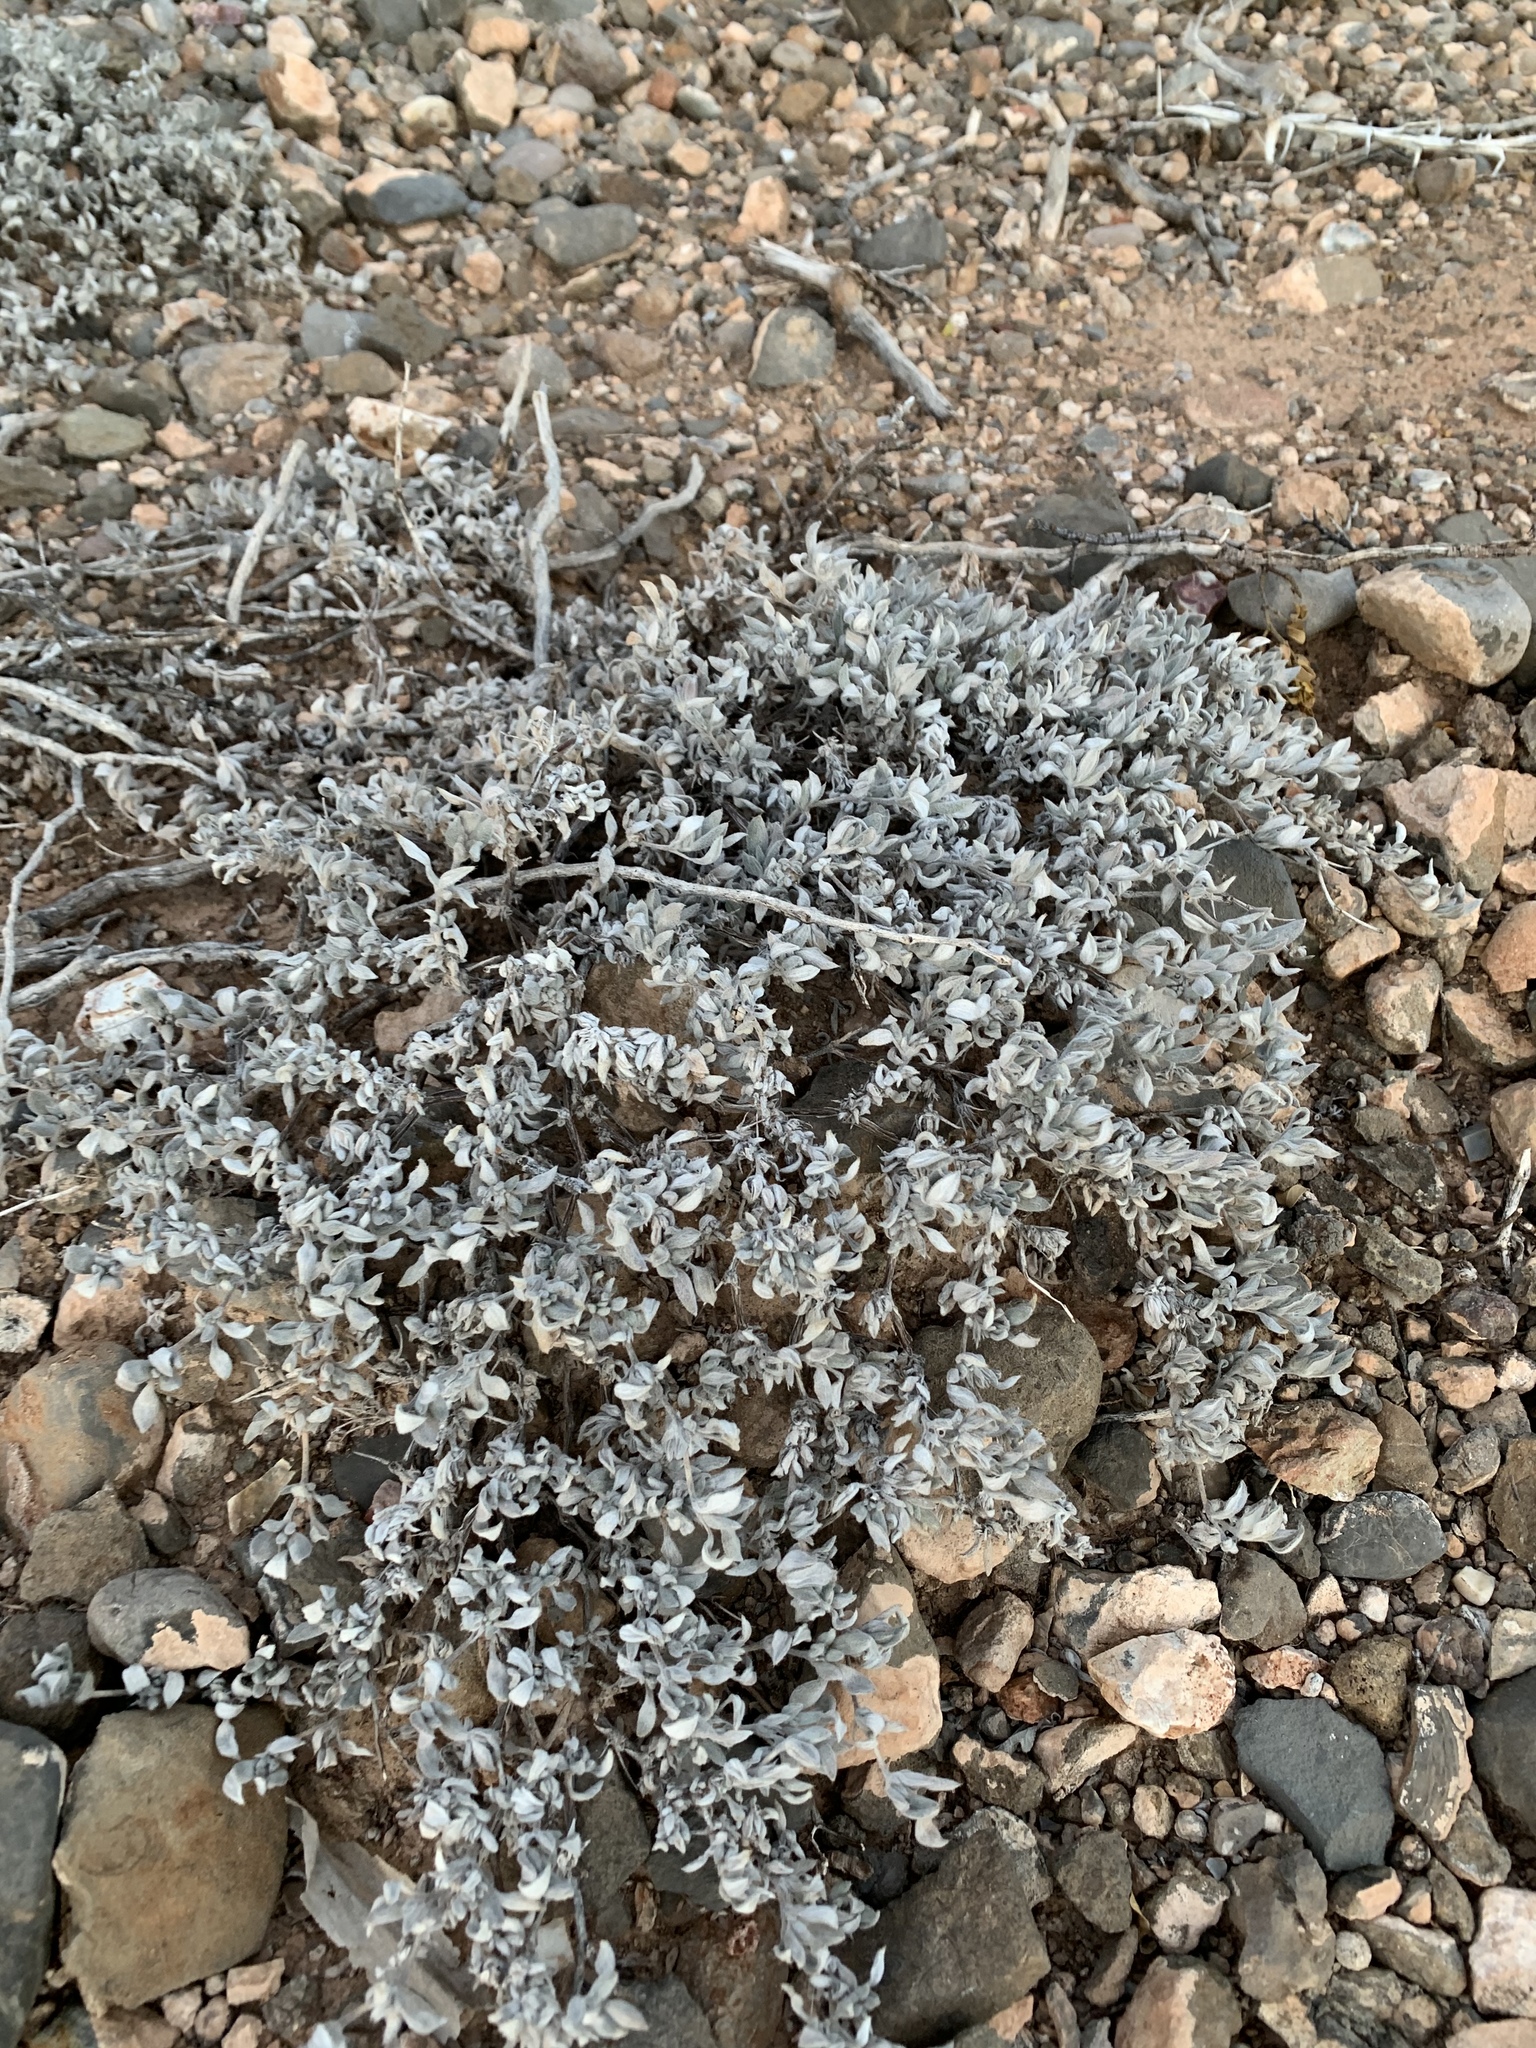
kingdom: Plantae
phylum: Tracheophyta
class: Magnoliopsida
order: Boraginales
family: Ehretiaceae
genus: Tiquilia
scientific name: Tiquilia canescens
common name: Hairy tiquilia
